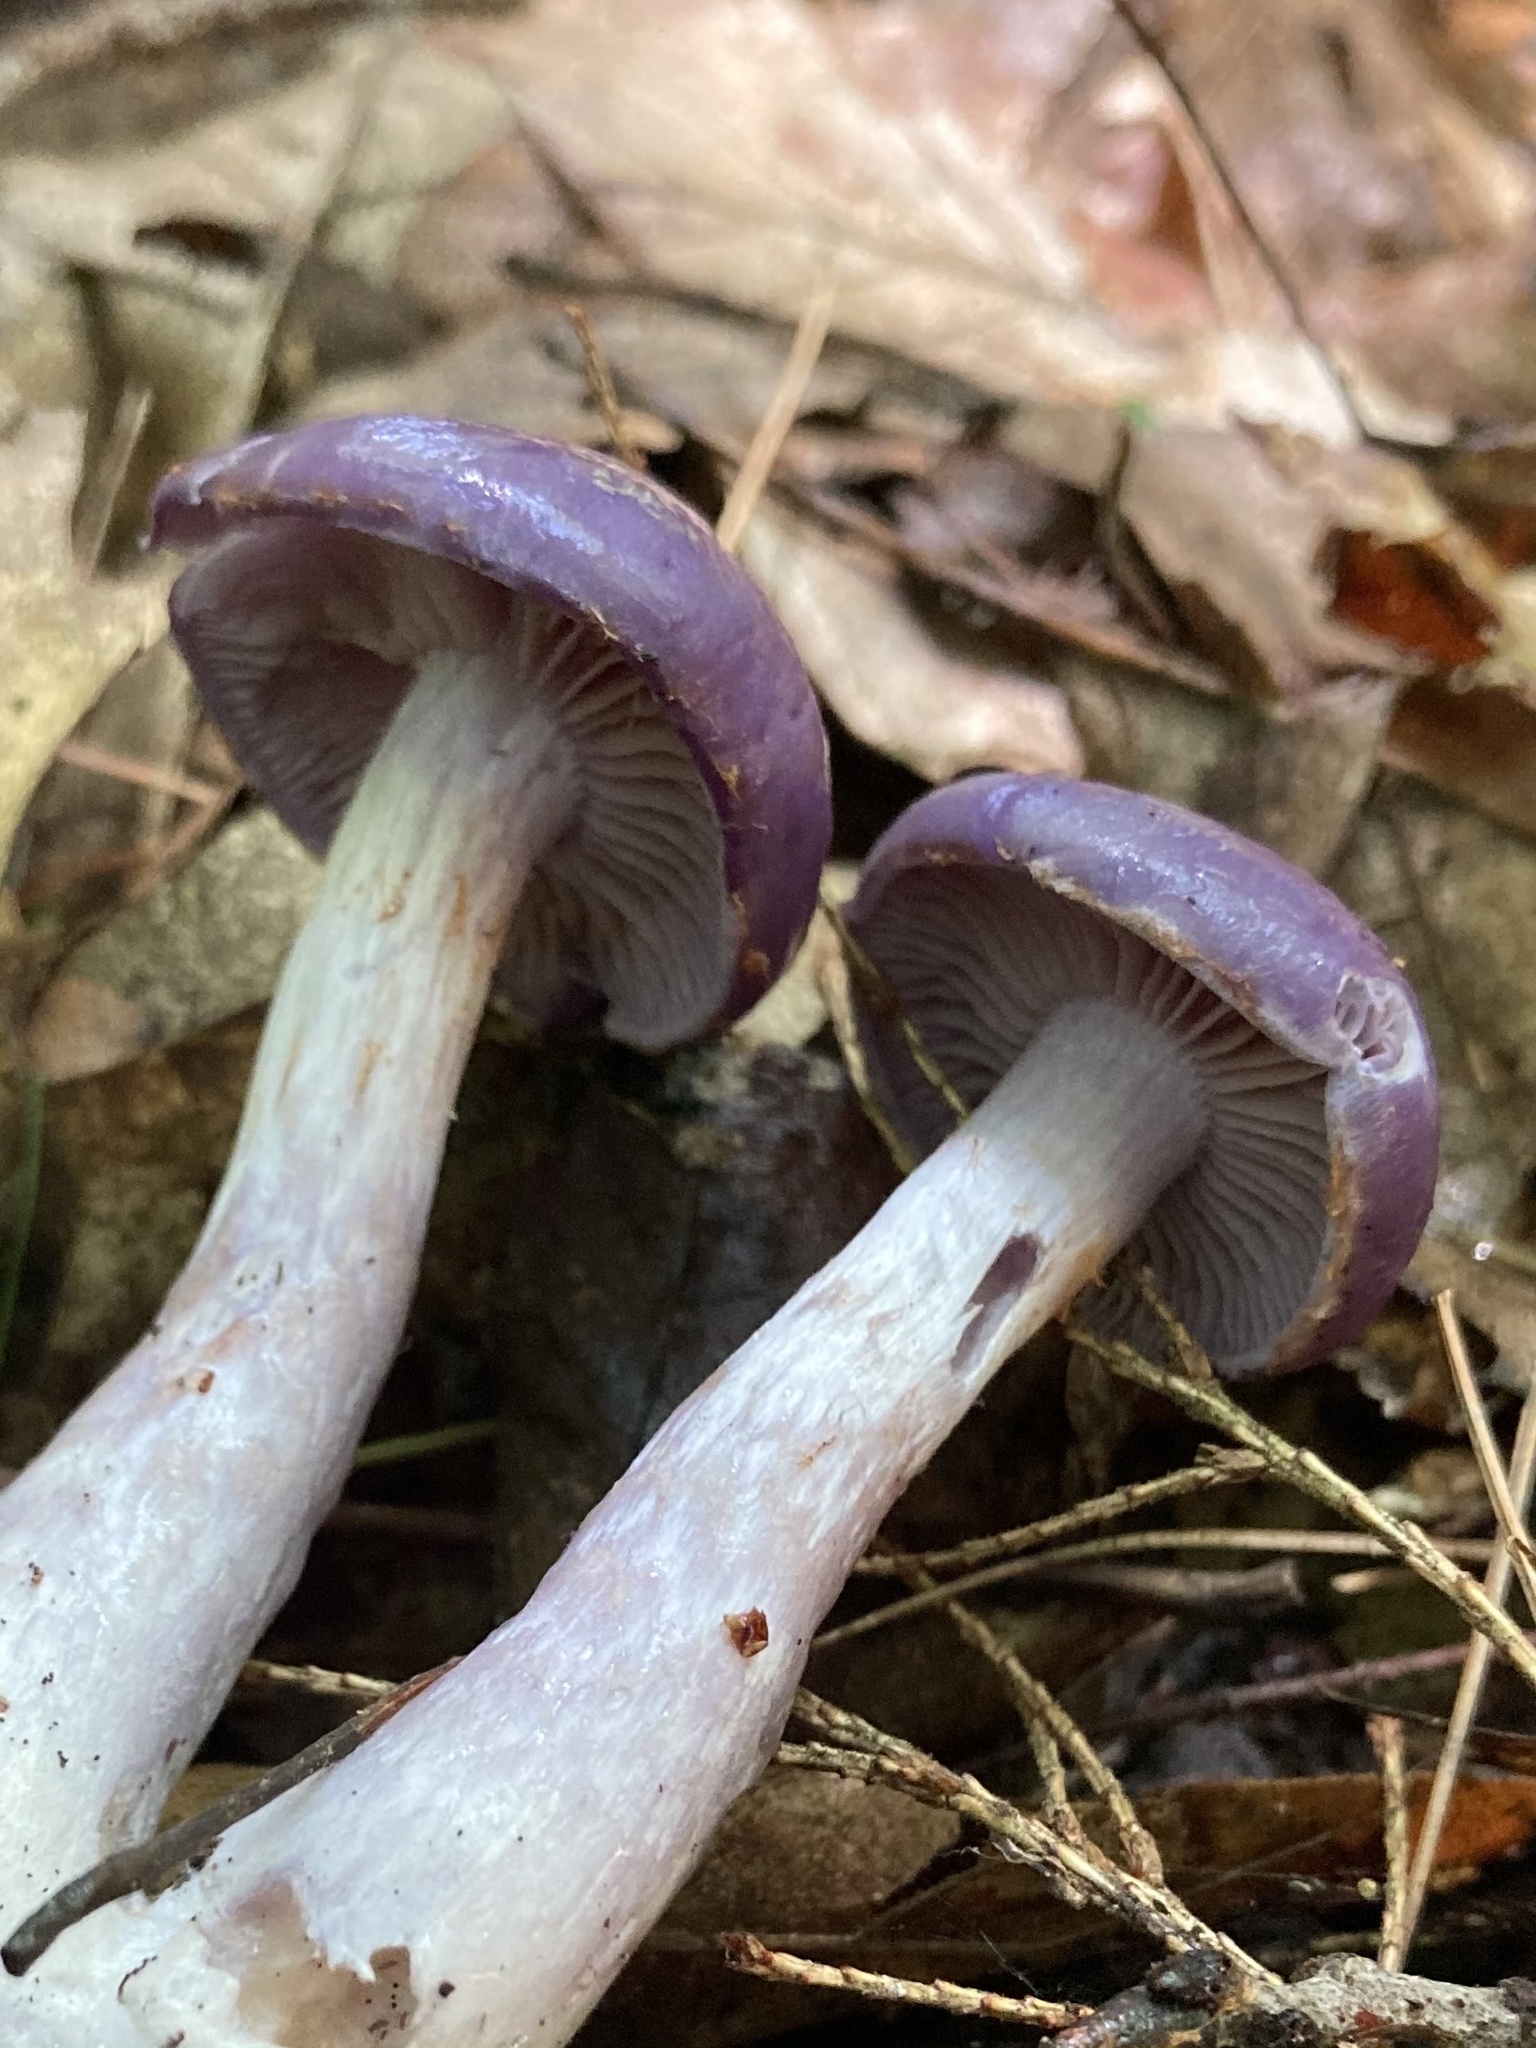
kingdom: Fungi
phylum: Basidiomycota
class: Agaricomycetes
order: Agaricales
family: Cortinariaceae
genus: Cortinarius
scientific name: Cortinarius iodes
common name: Viscid violet cort
